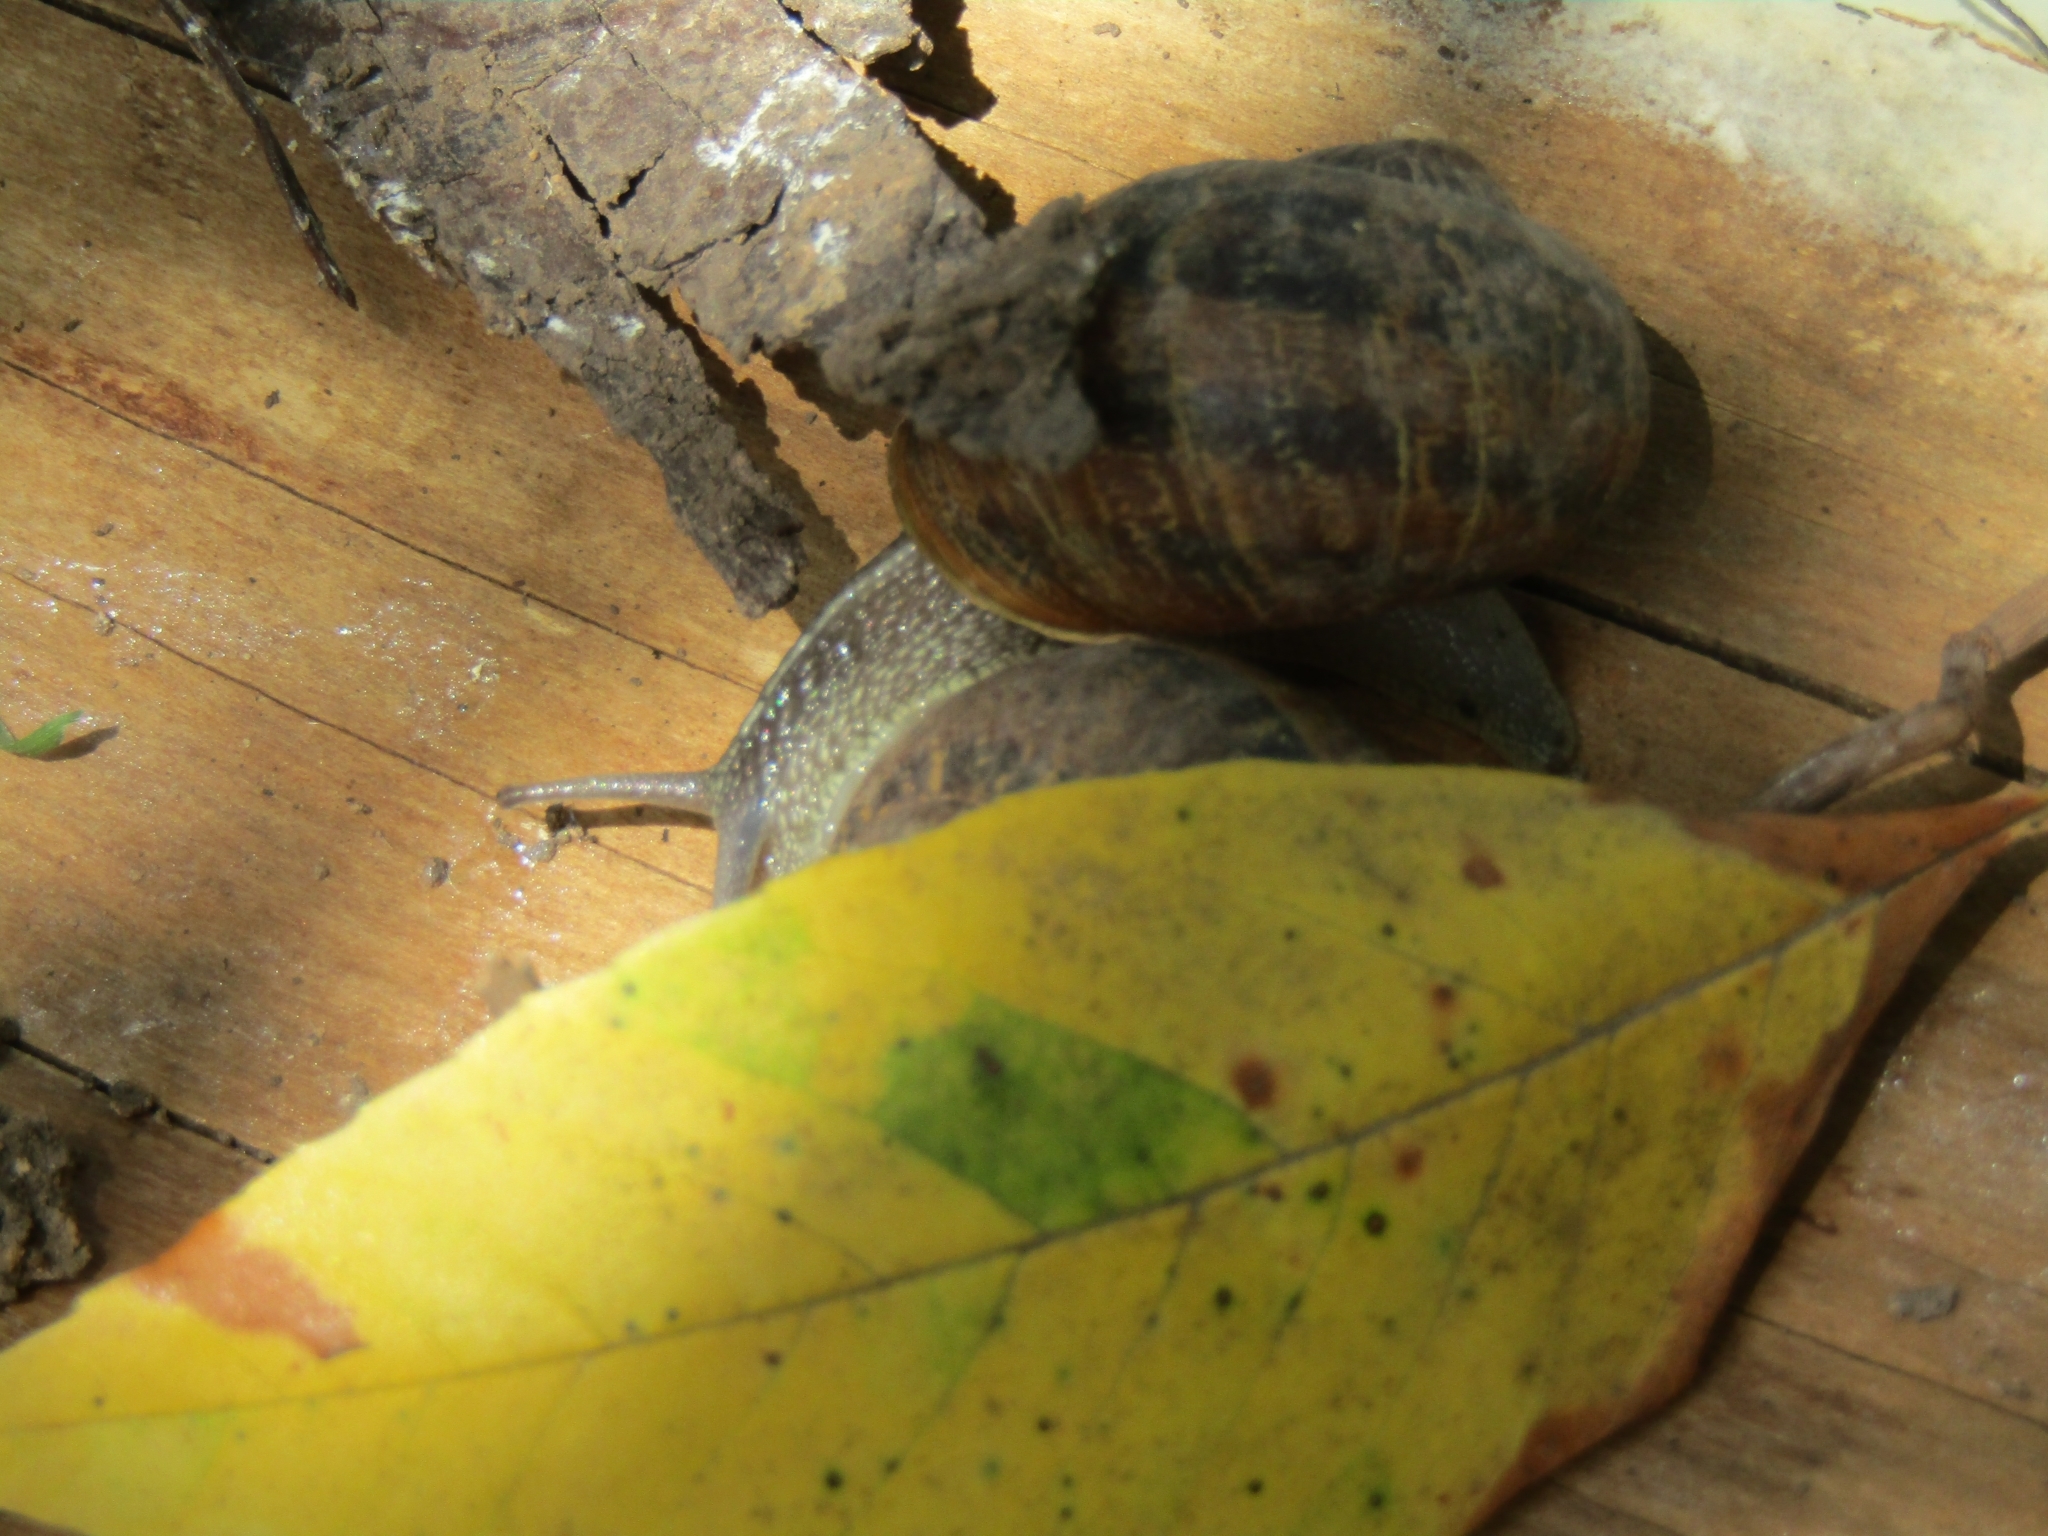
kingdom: Animalia
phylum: Mollusca
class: Gastropoda
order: Stylommatophora
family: Helicidae
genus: Cornu
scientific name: Cornu aspersum
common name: Brown garden snail
